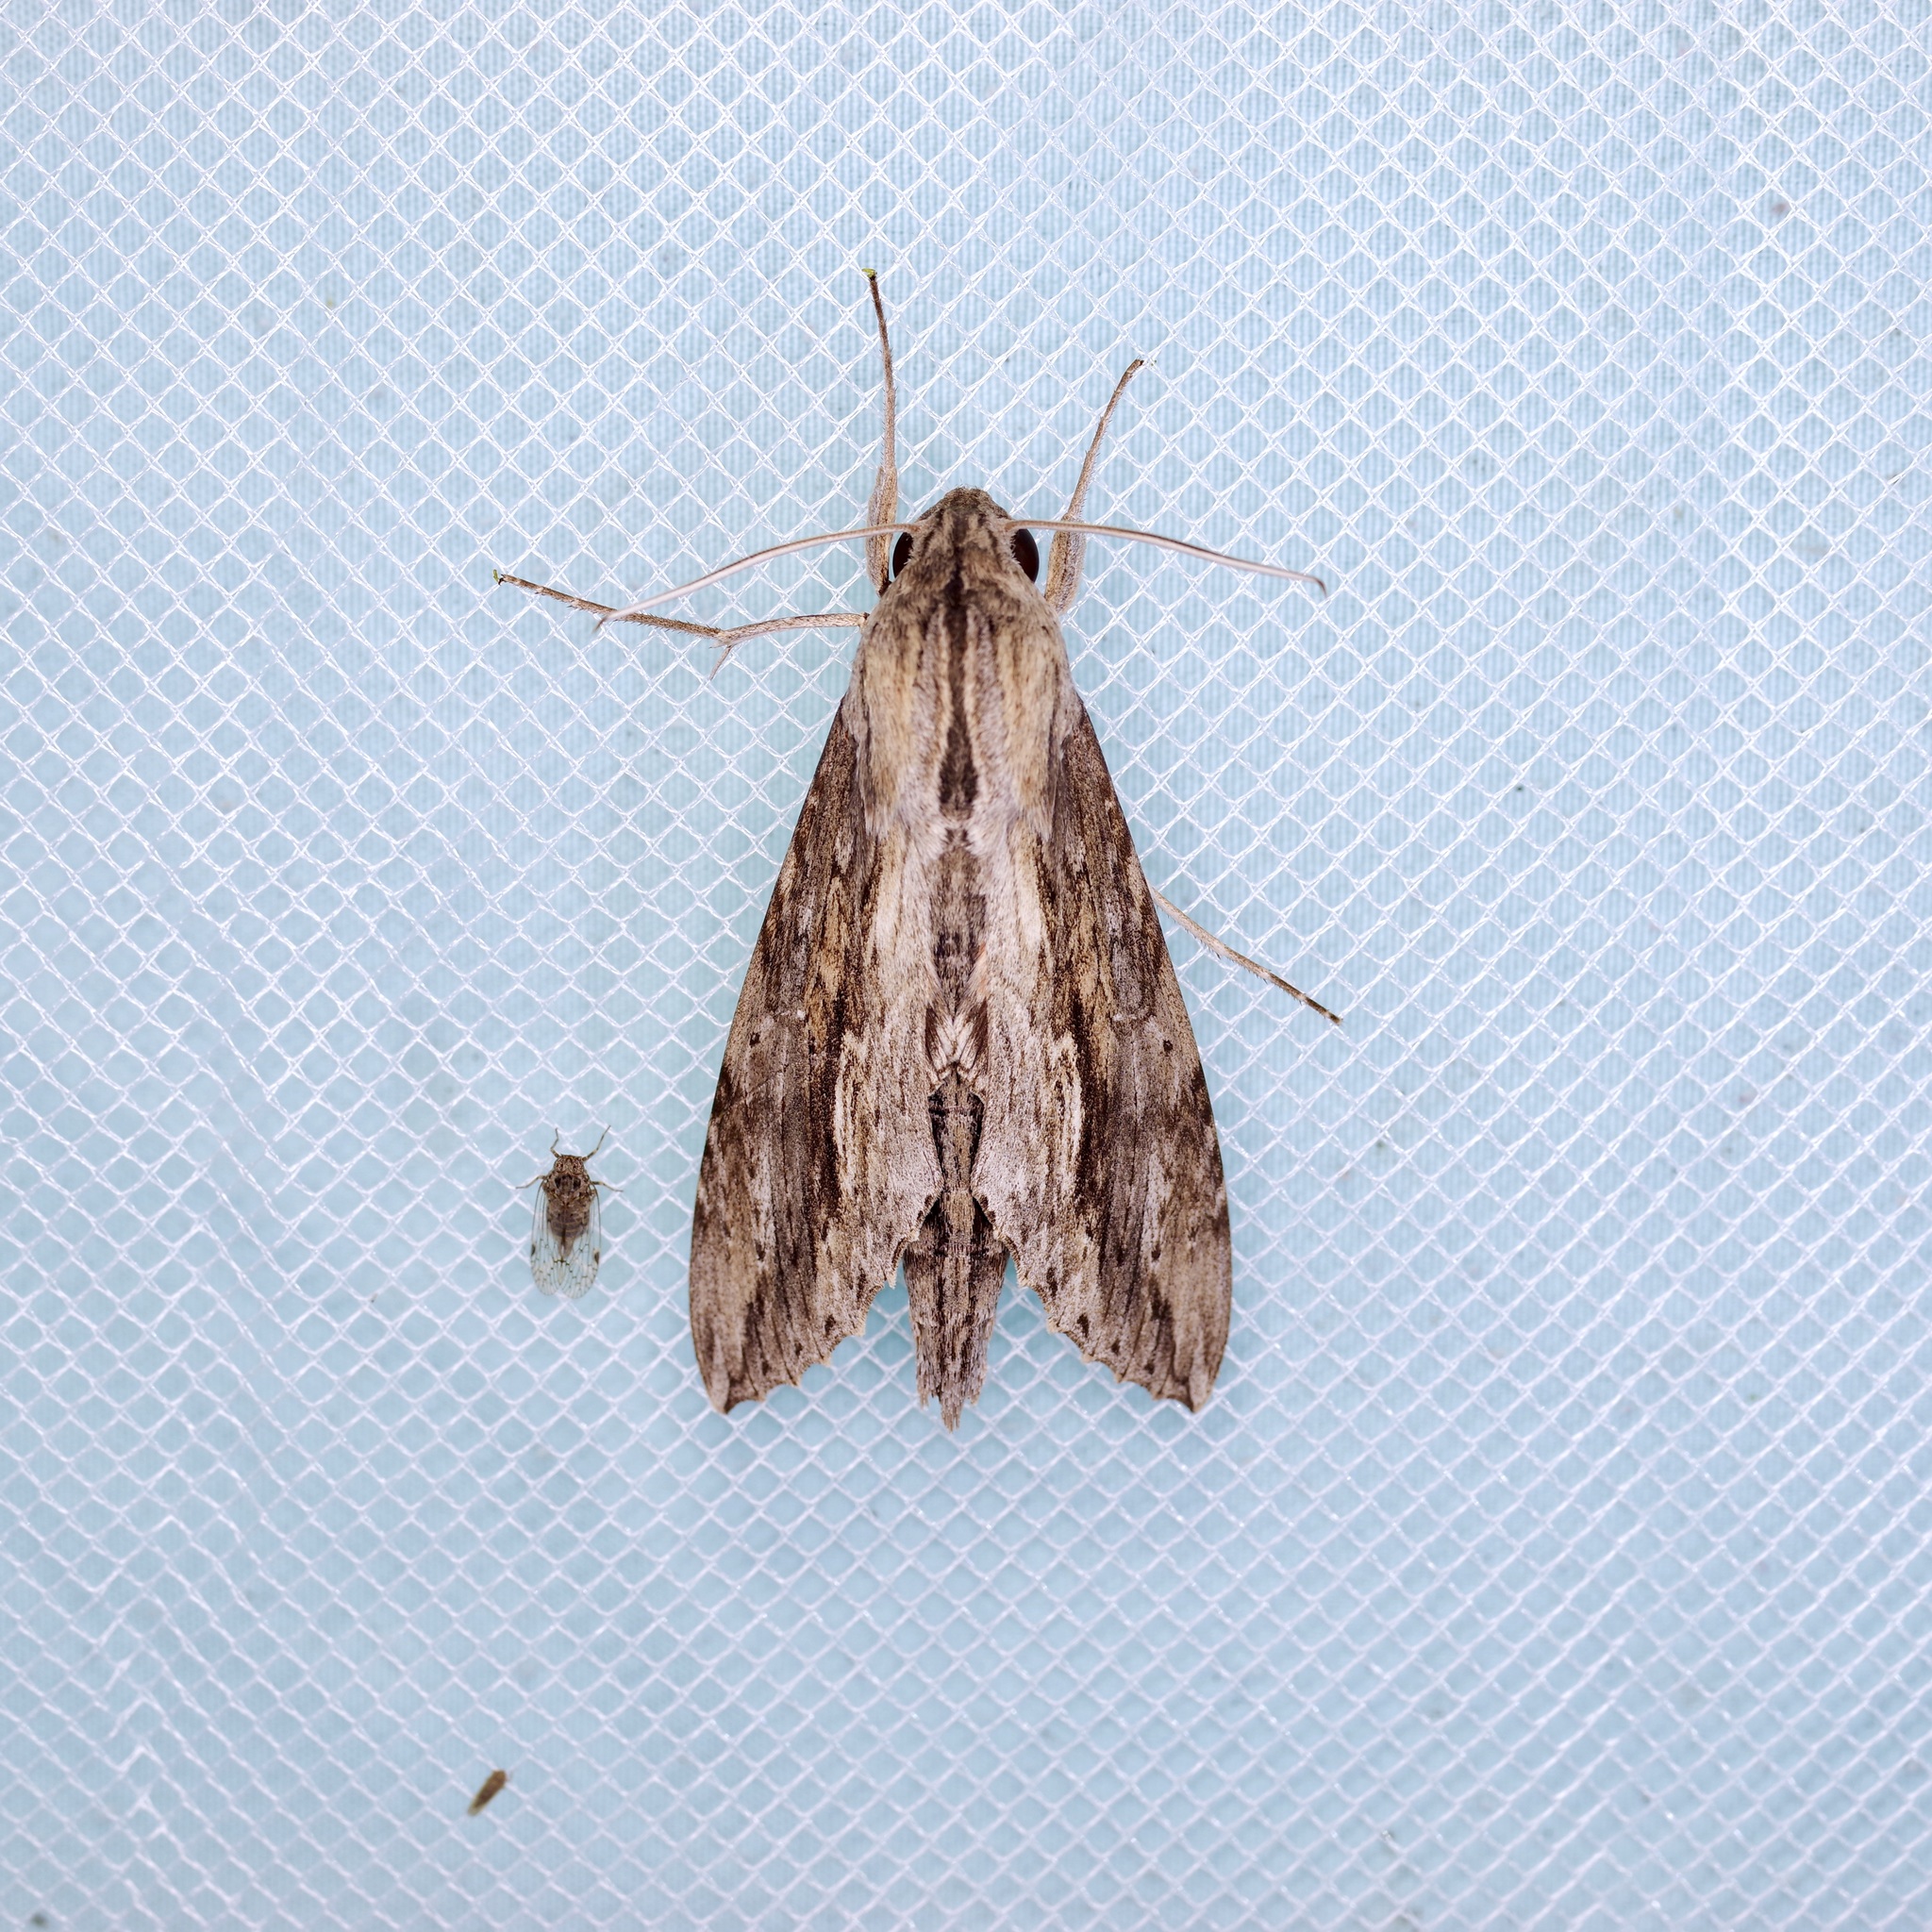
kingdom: Animalia
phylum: Arthropoda
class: Insecta
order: Lepidoptera
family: Sphingidae
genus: Erinnyis
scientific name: Erinnyis ello
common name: Ello sphinx
